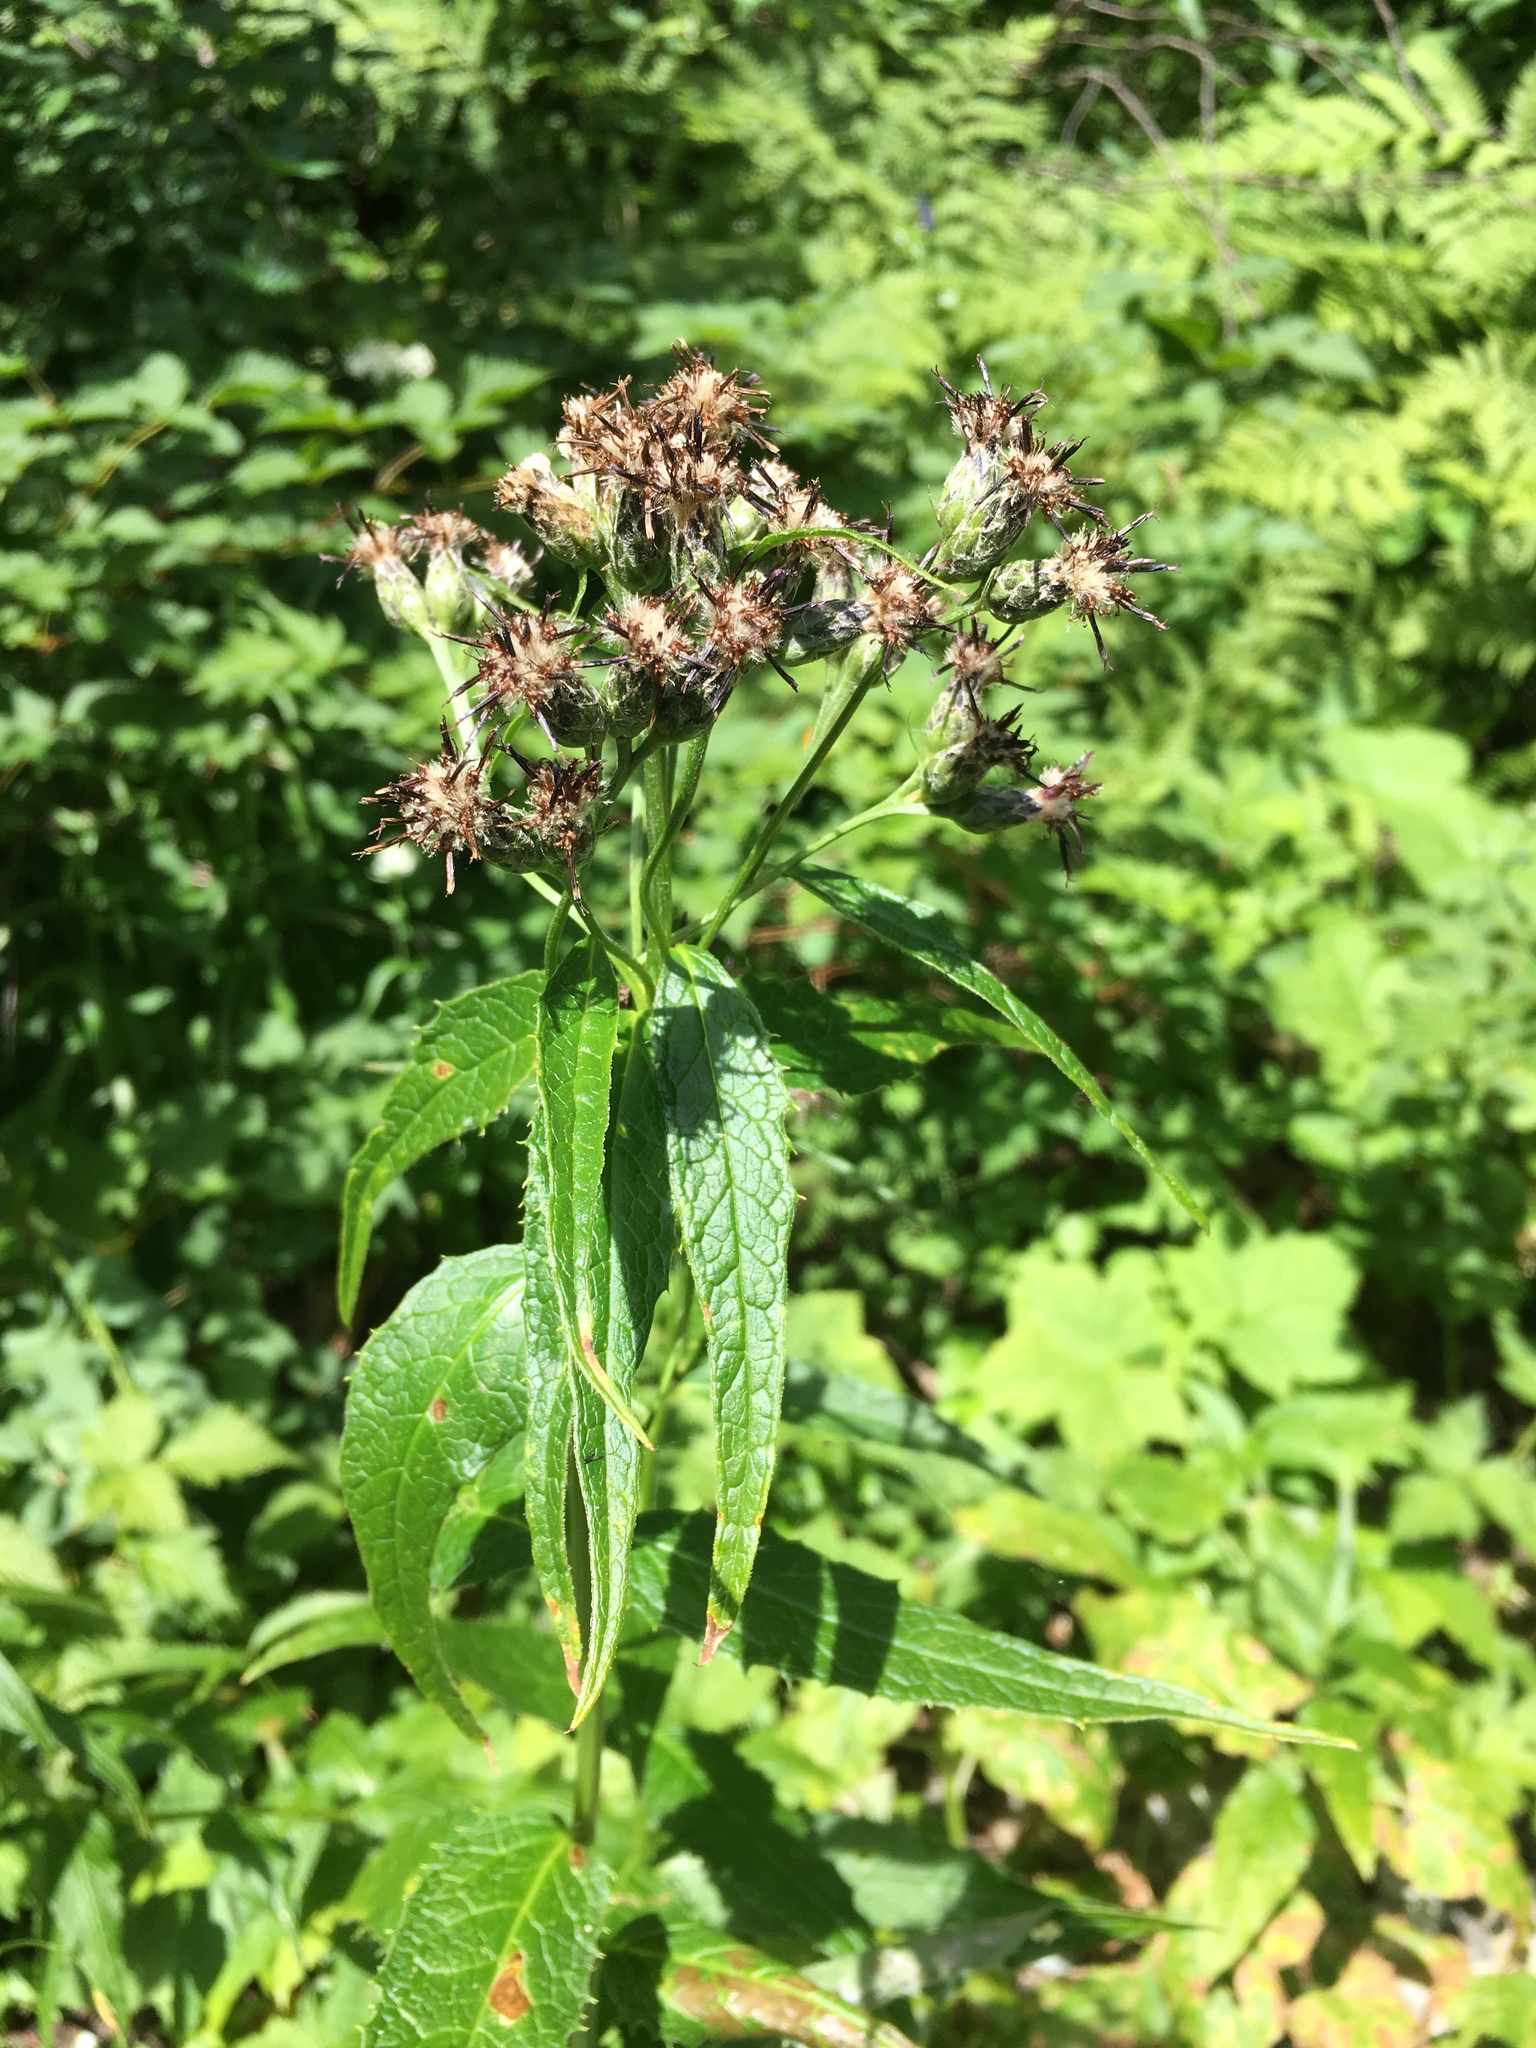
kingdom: Plantae
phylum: Tracheophyta
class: Magnoliopsida
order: Asterales
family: Asteraceae
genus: Saussurea
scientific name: Saussurea americana
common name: American saw-wort
